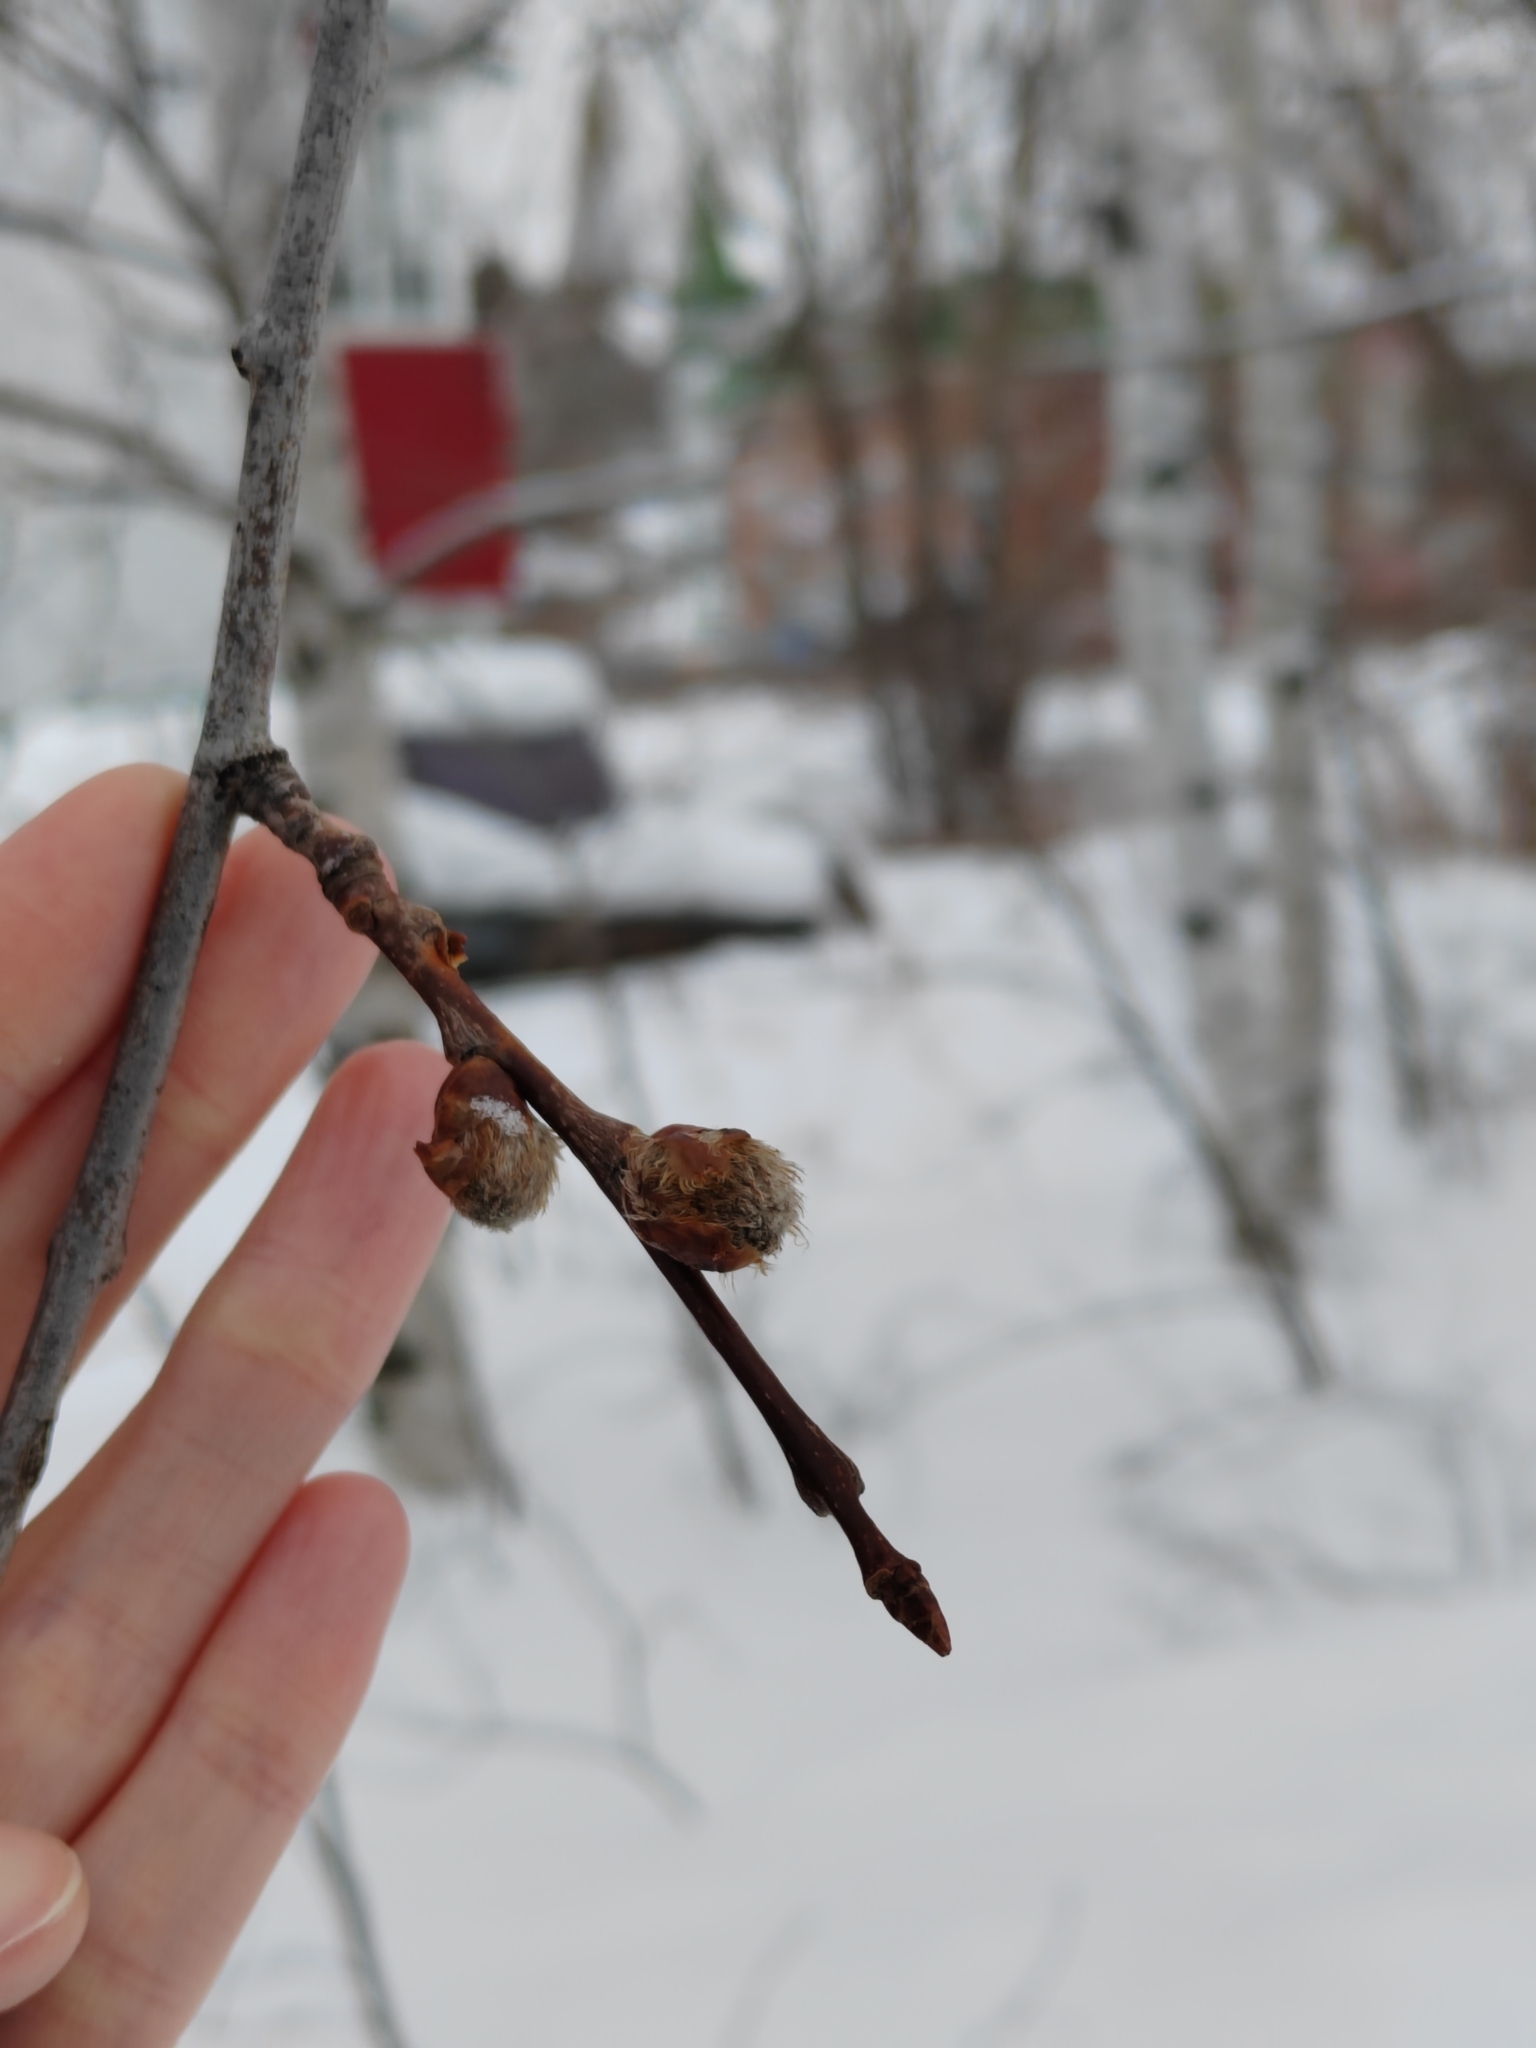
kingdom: Plantae
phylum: Tracheophyta
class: Magnoliopsida
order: Malpighiales
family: Salicaceae
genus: Populus
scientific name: Populus tremula
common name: European aspen
